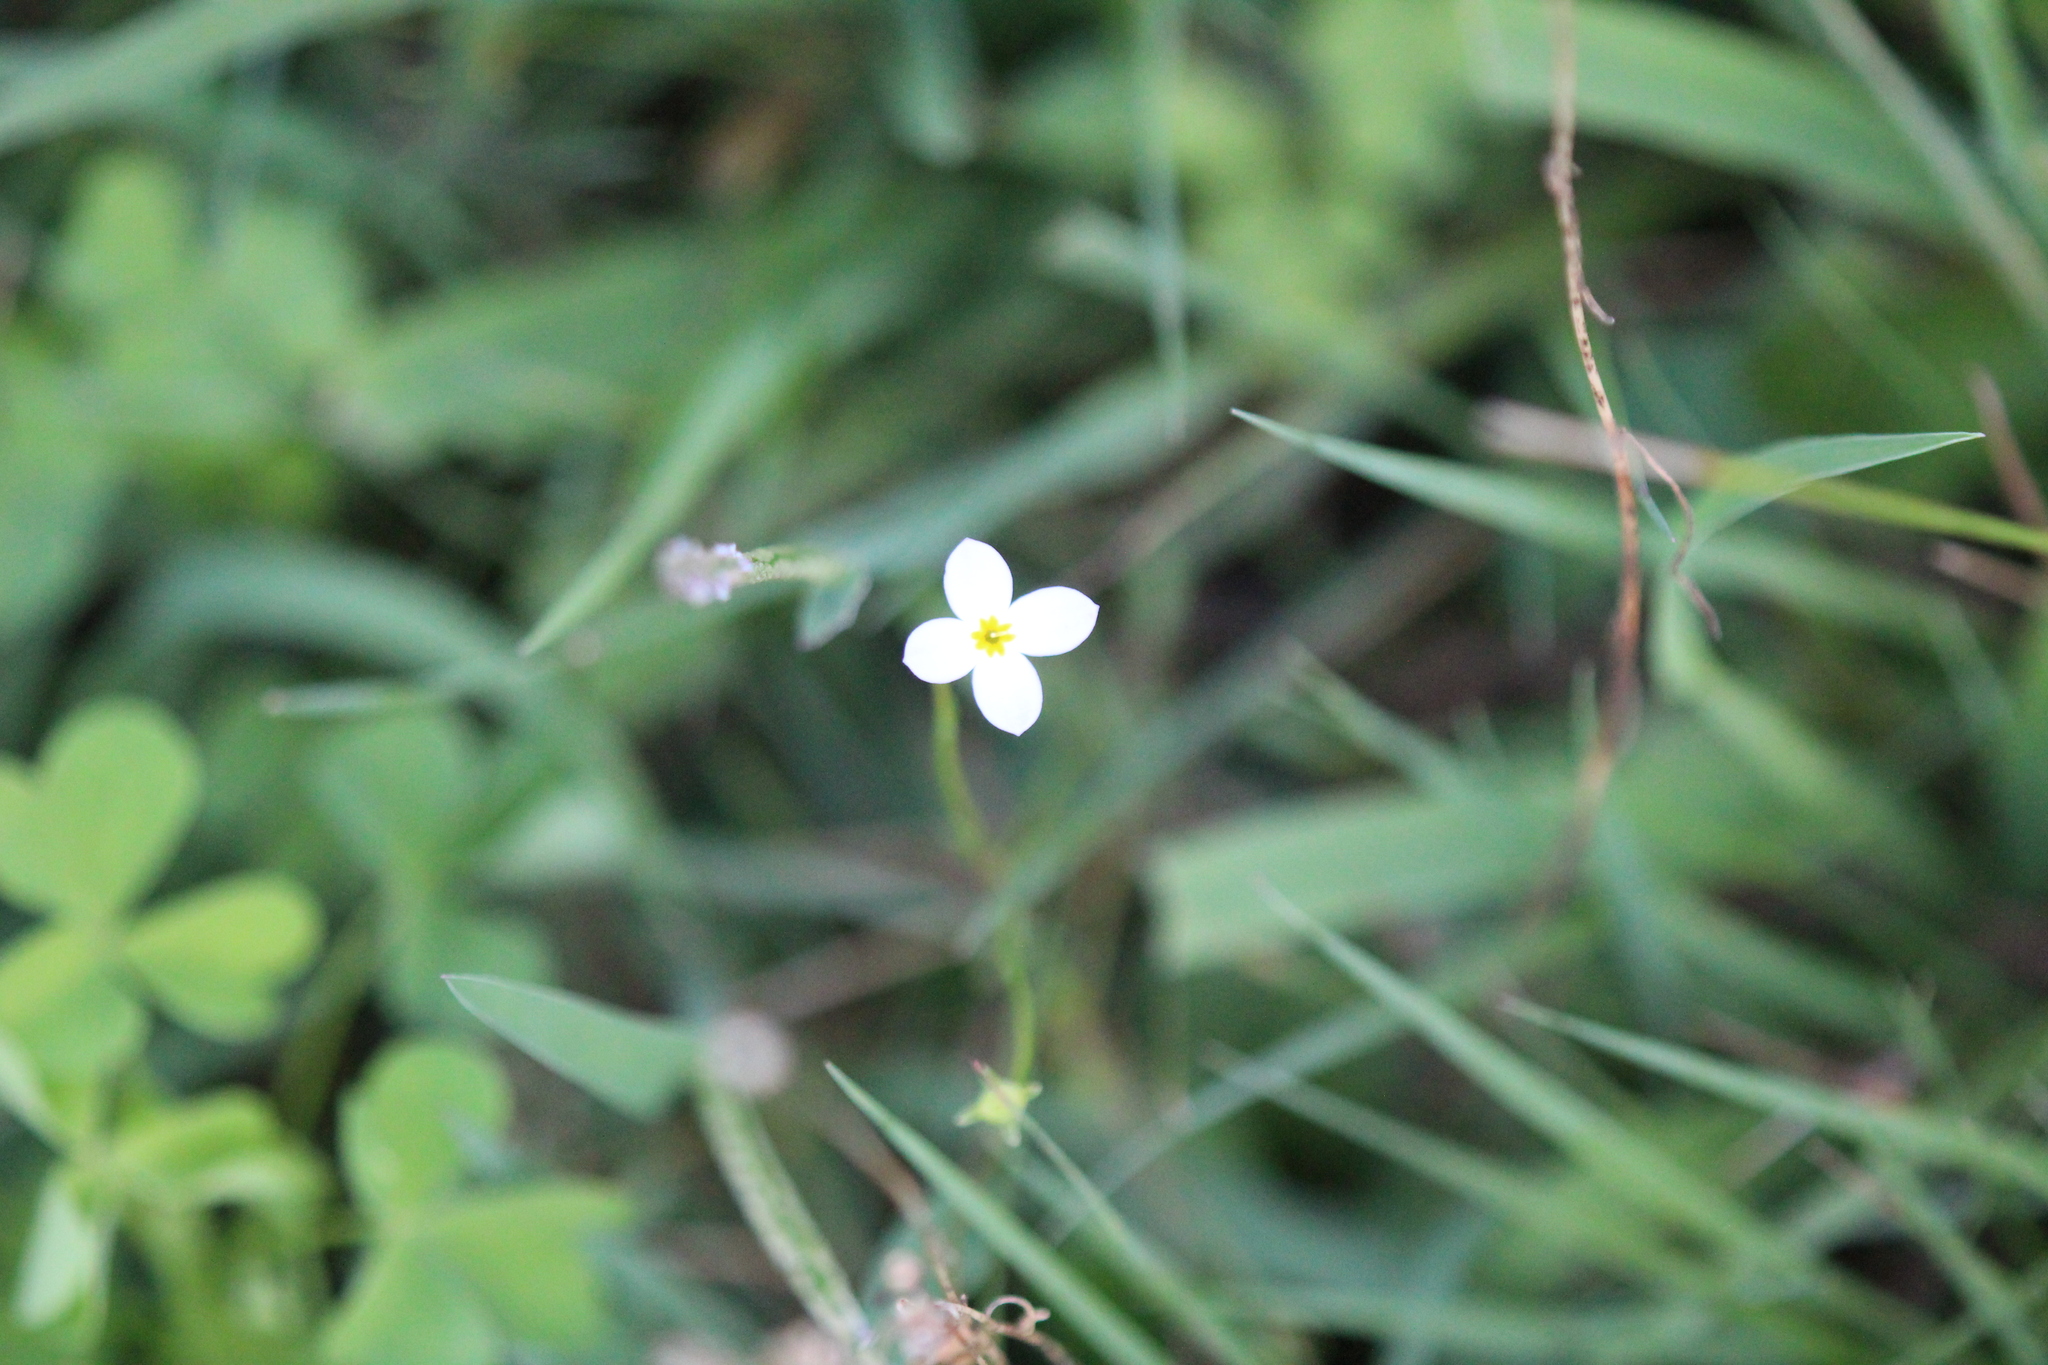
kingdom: Plantae
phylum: Tracheophyta
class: Magnoliopsida
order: Gentianales
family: Rubiaceae
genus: Houstonia
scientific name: Houstonia caerulea
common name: Bluets
